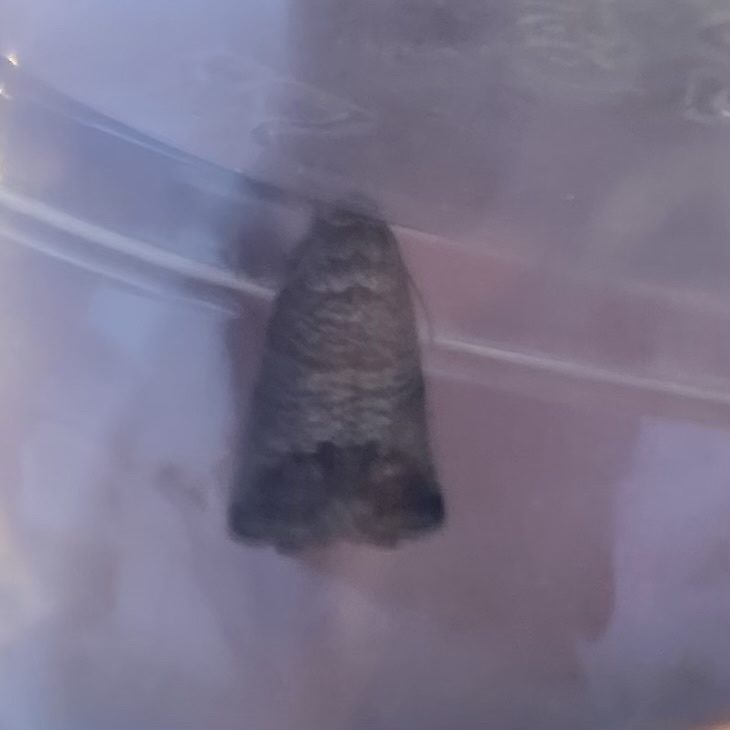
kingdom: Animalia
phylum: Arthropoda
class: Insecta
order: Lepidoptera
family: Tortricidae
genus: Cydia
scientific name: Cydia pomonella
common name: Codling moth
